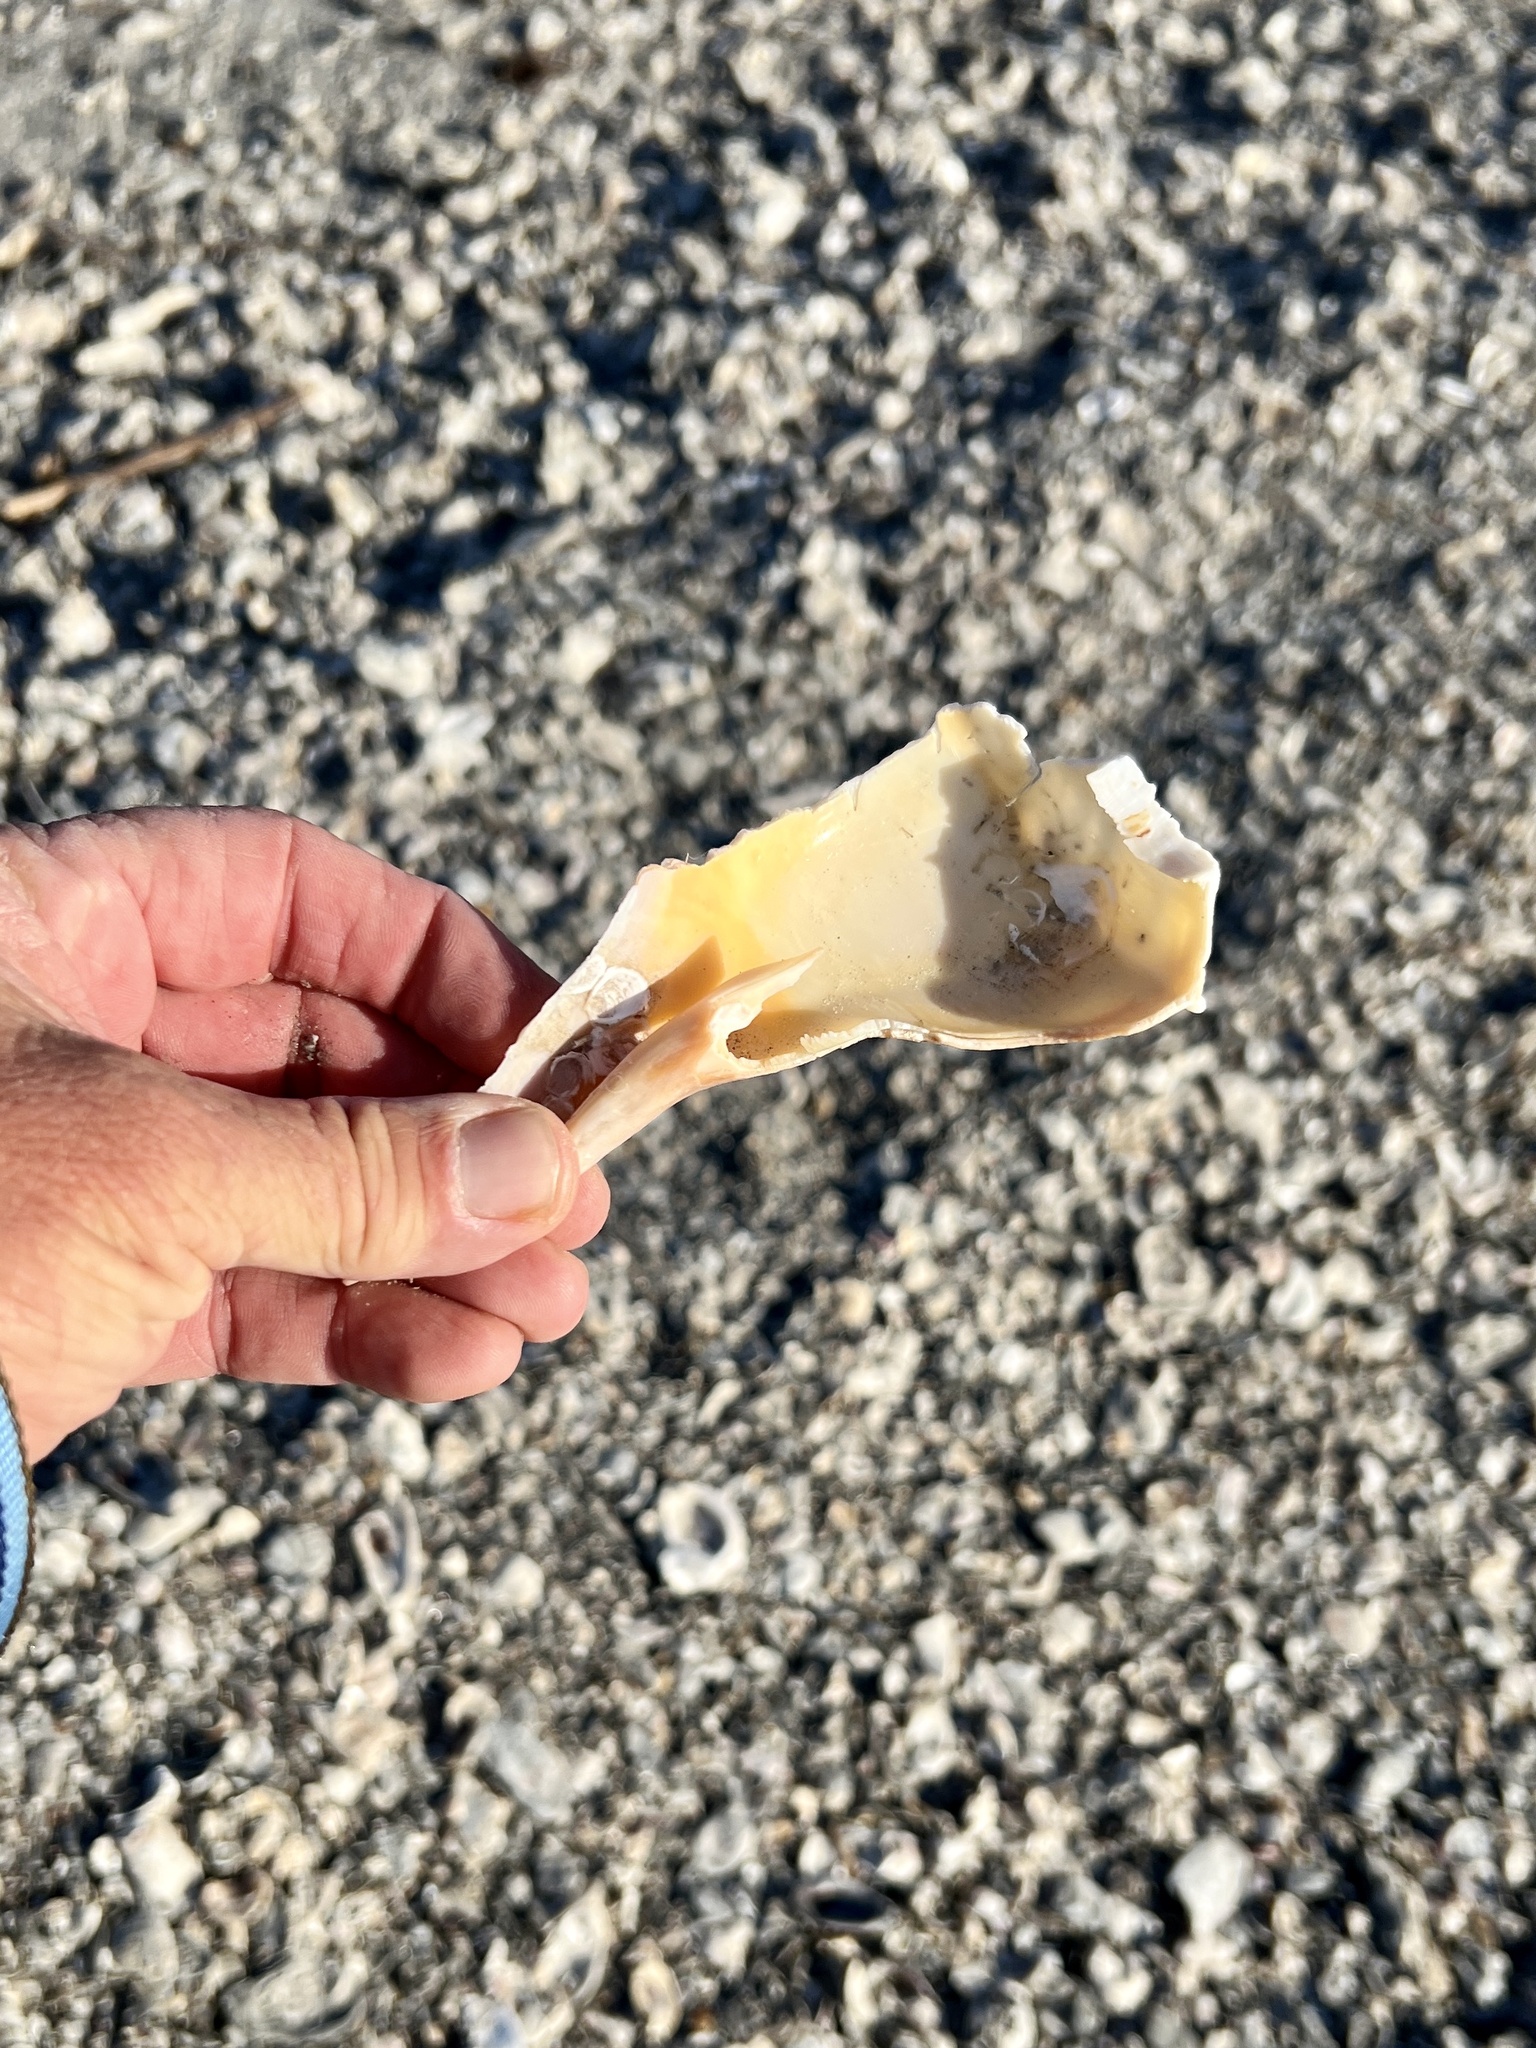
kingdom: Animalia
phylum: Mollusca
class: Gastropoda
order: Neogastropoda
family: Busyconidae
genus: Sinistrofulgur
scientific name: Sinistrofulgur pulleyi
